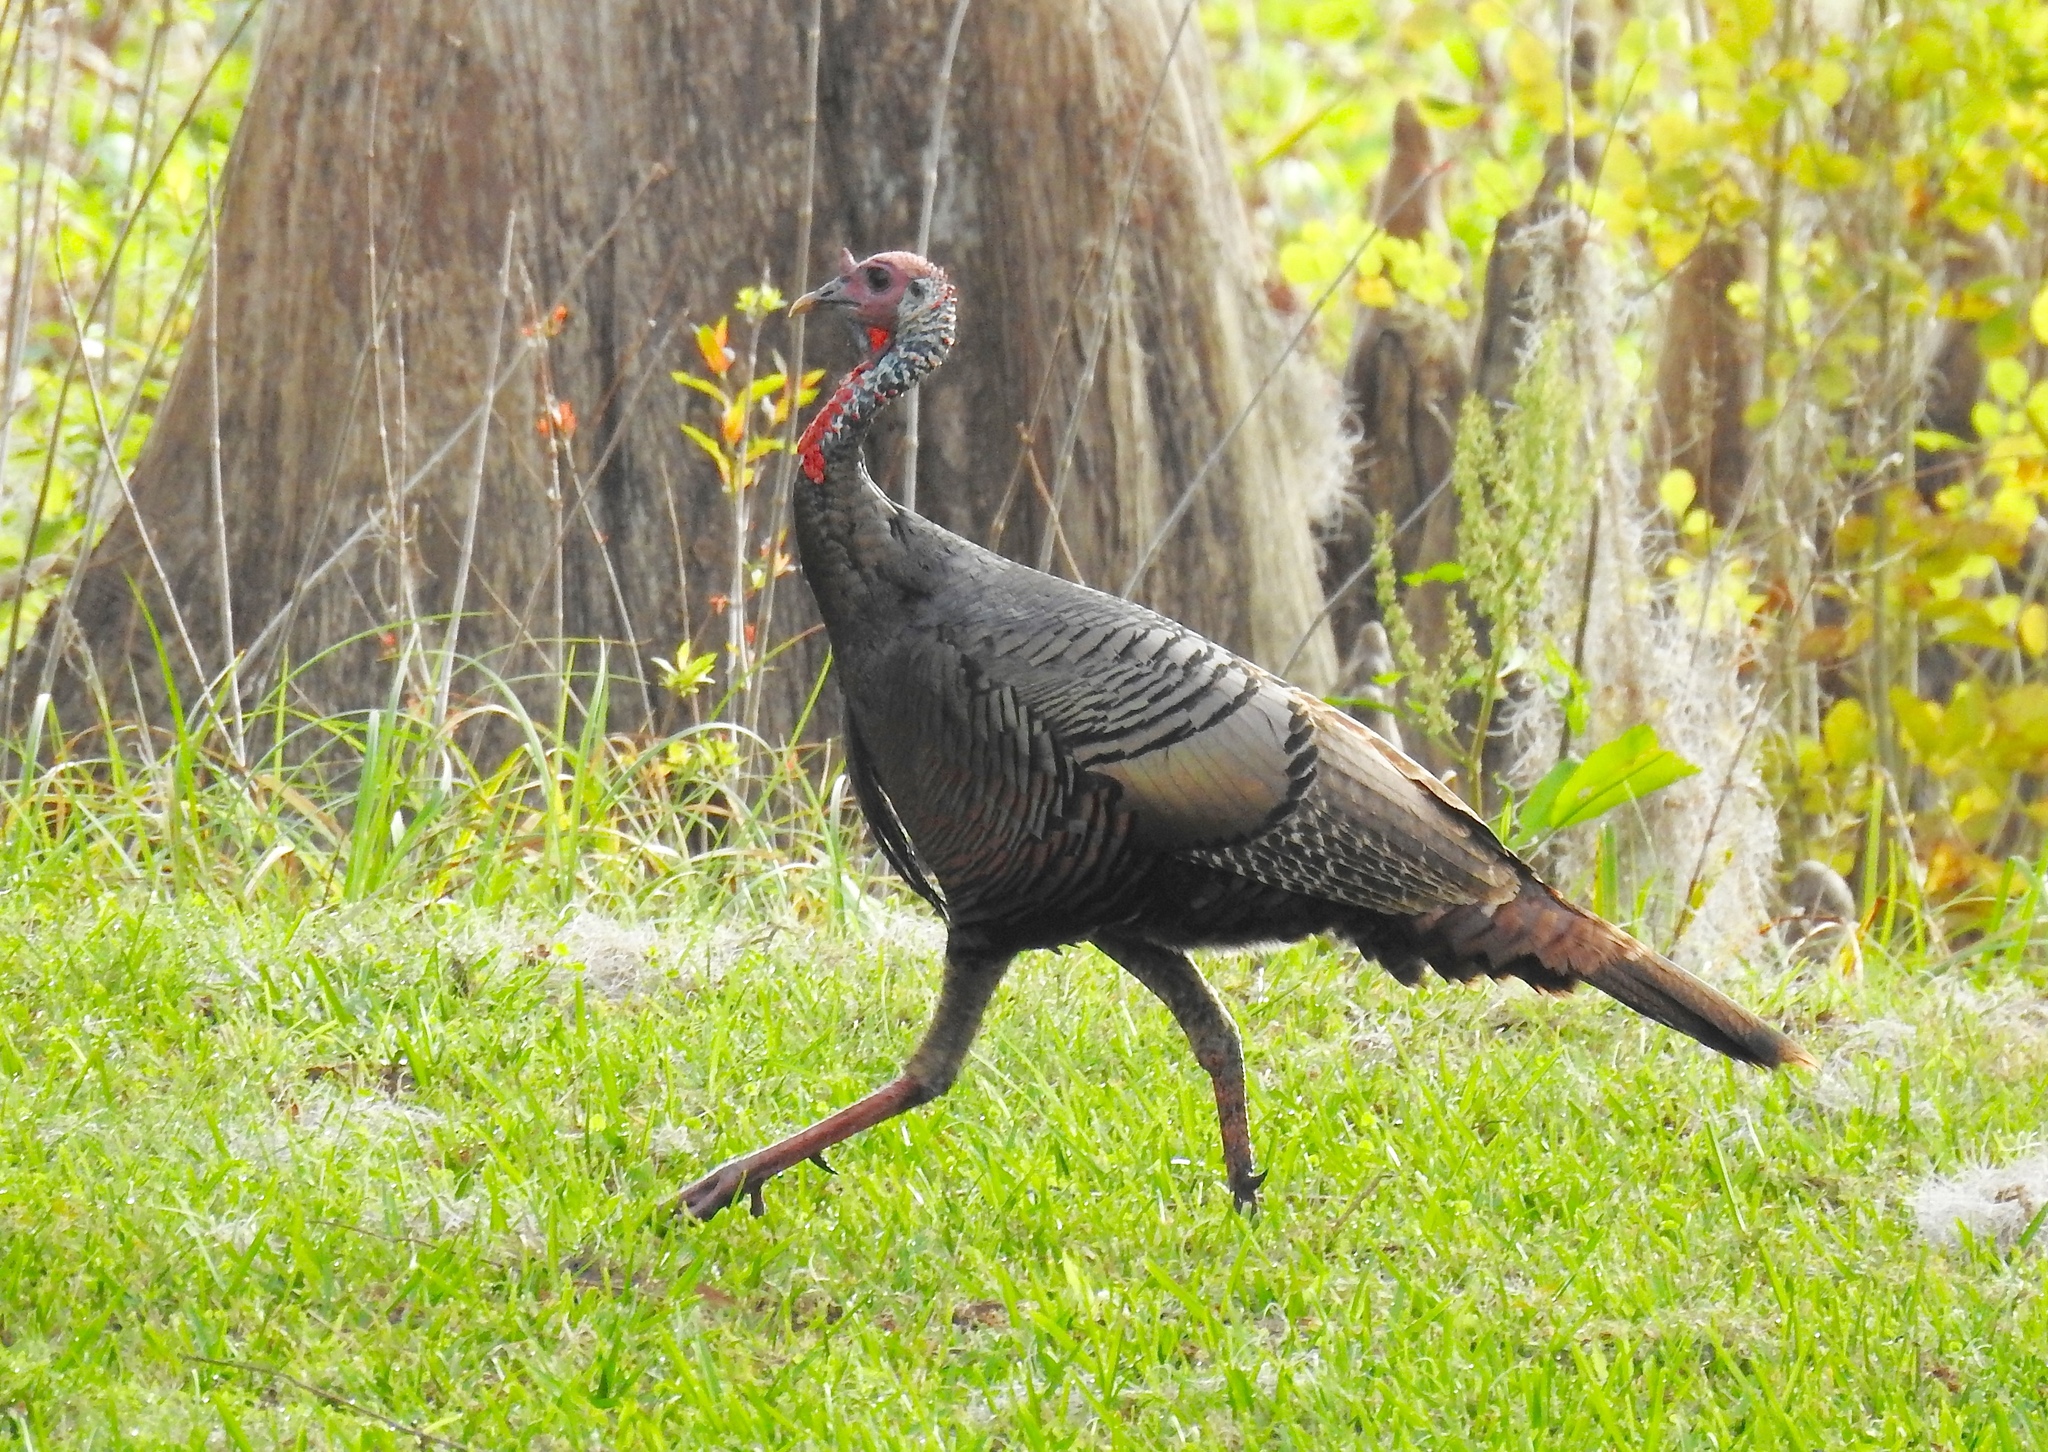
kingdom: Animalia
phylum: Chordata
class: Aves
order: Galliformes
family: Phasianidae
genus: Meleagris
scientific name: Meleagris gallopavo
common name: Wild turkey
